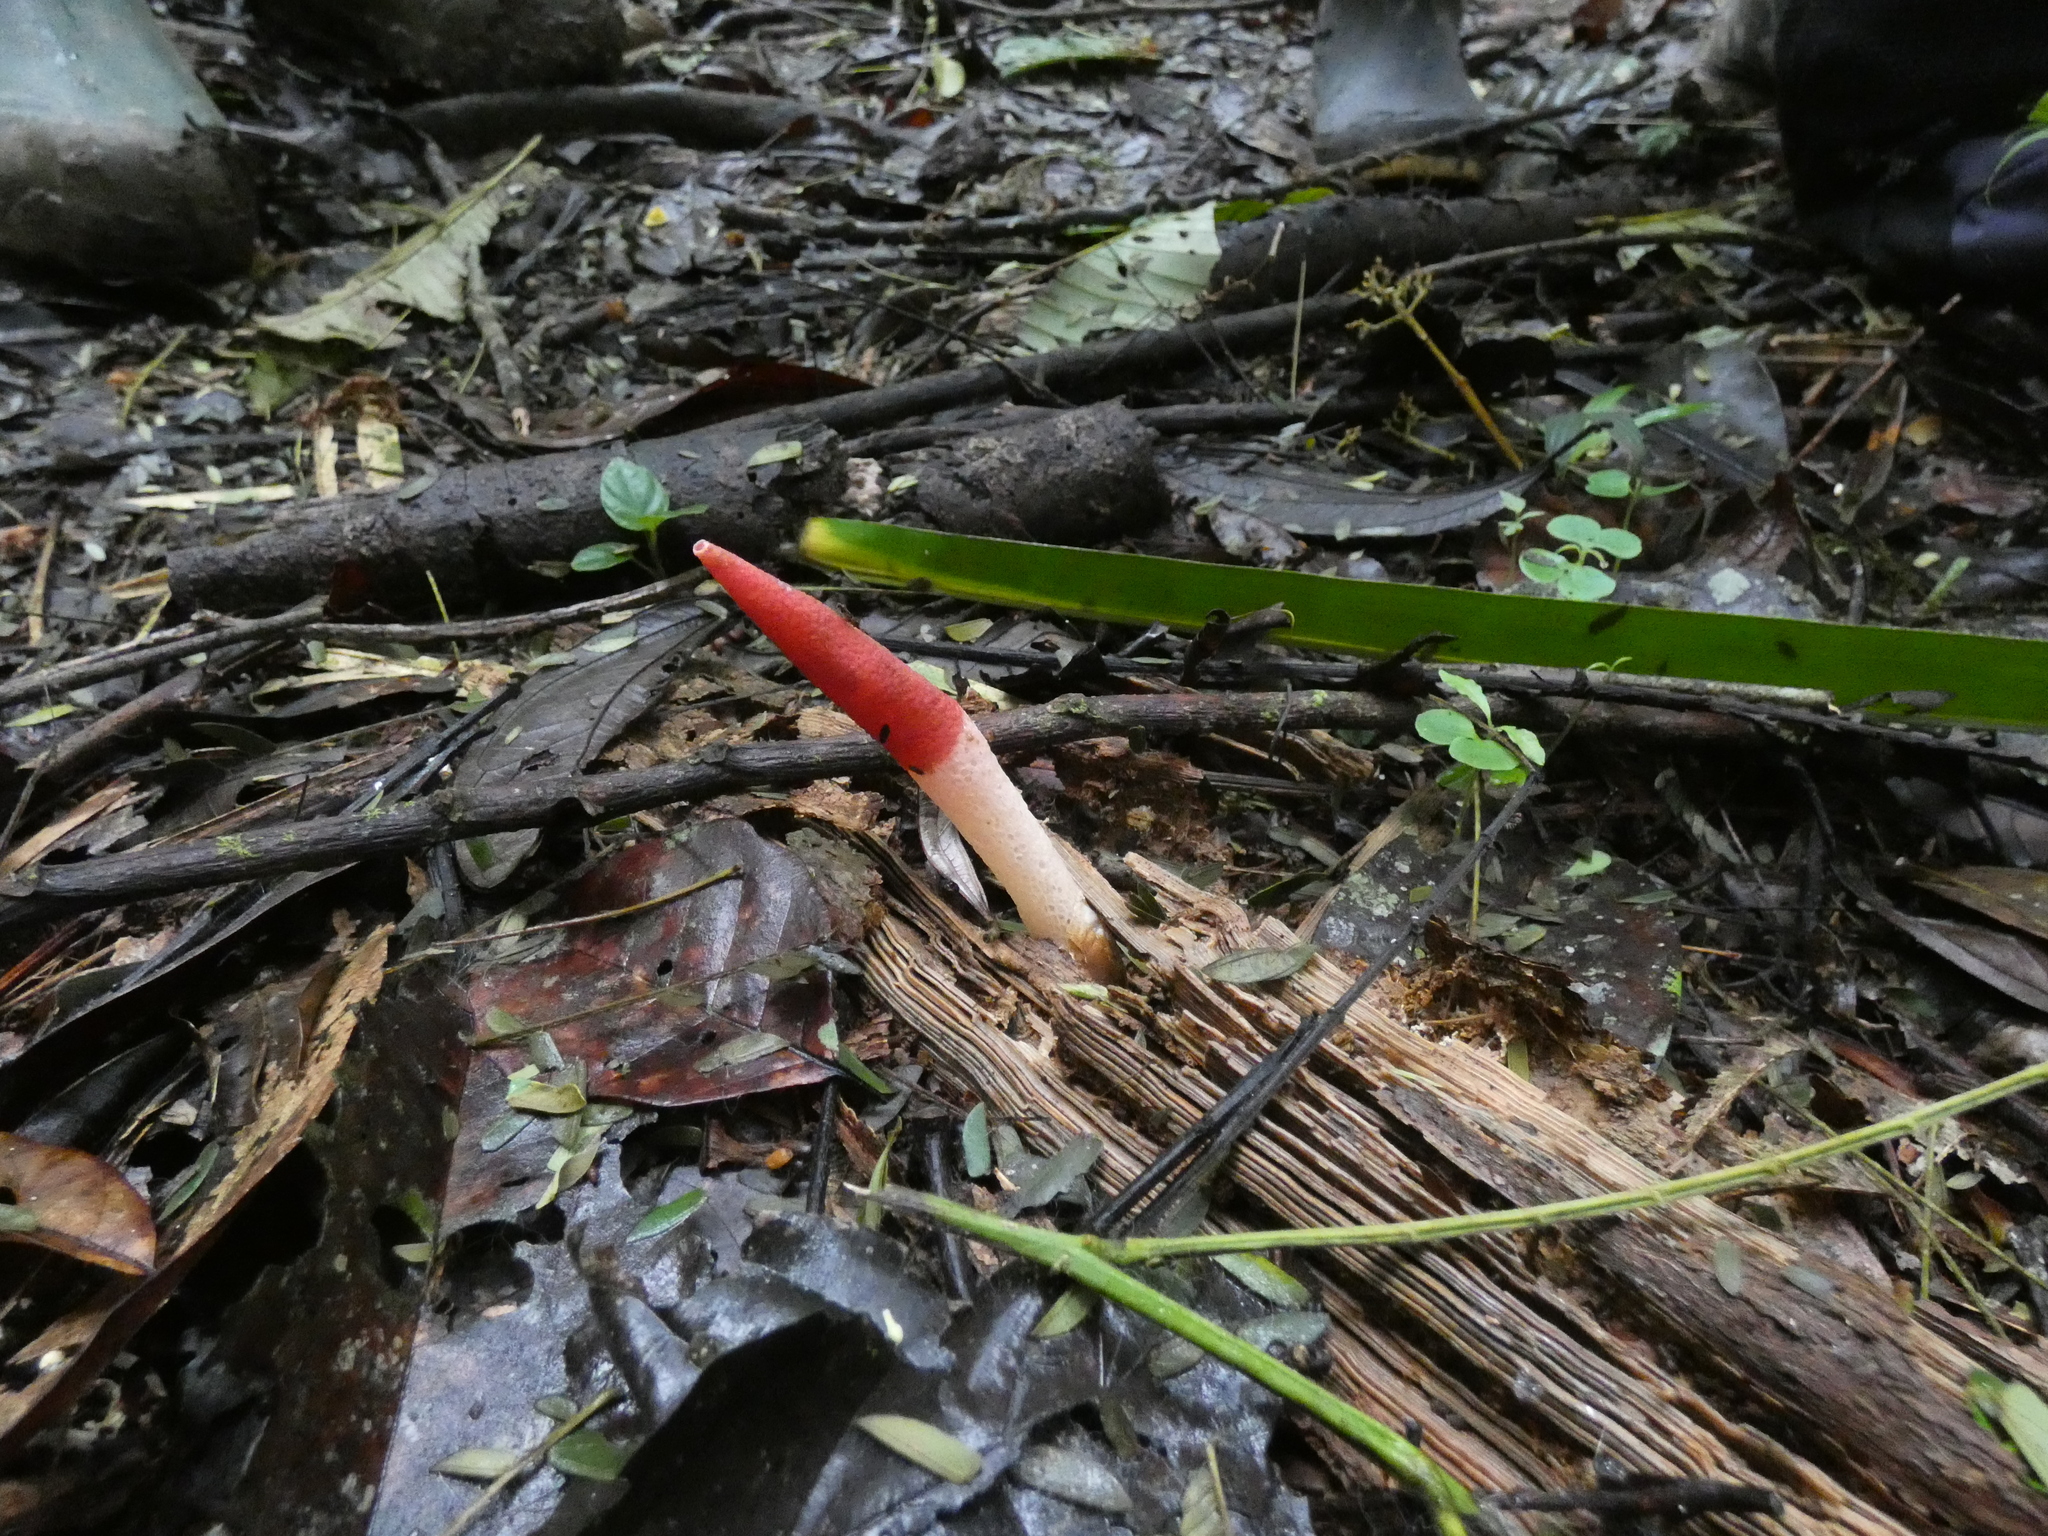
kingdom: Fungi
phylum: Basidiomycota
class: Agaricomycetes
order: Phallales
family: Phallaceae
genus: Mutinus
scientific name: Mutinus argentinus
